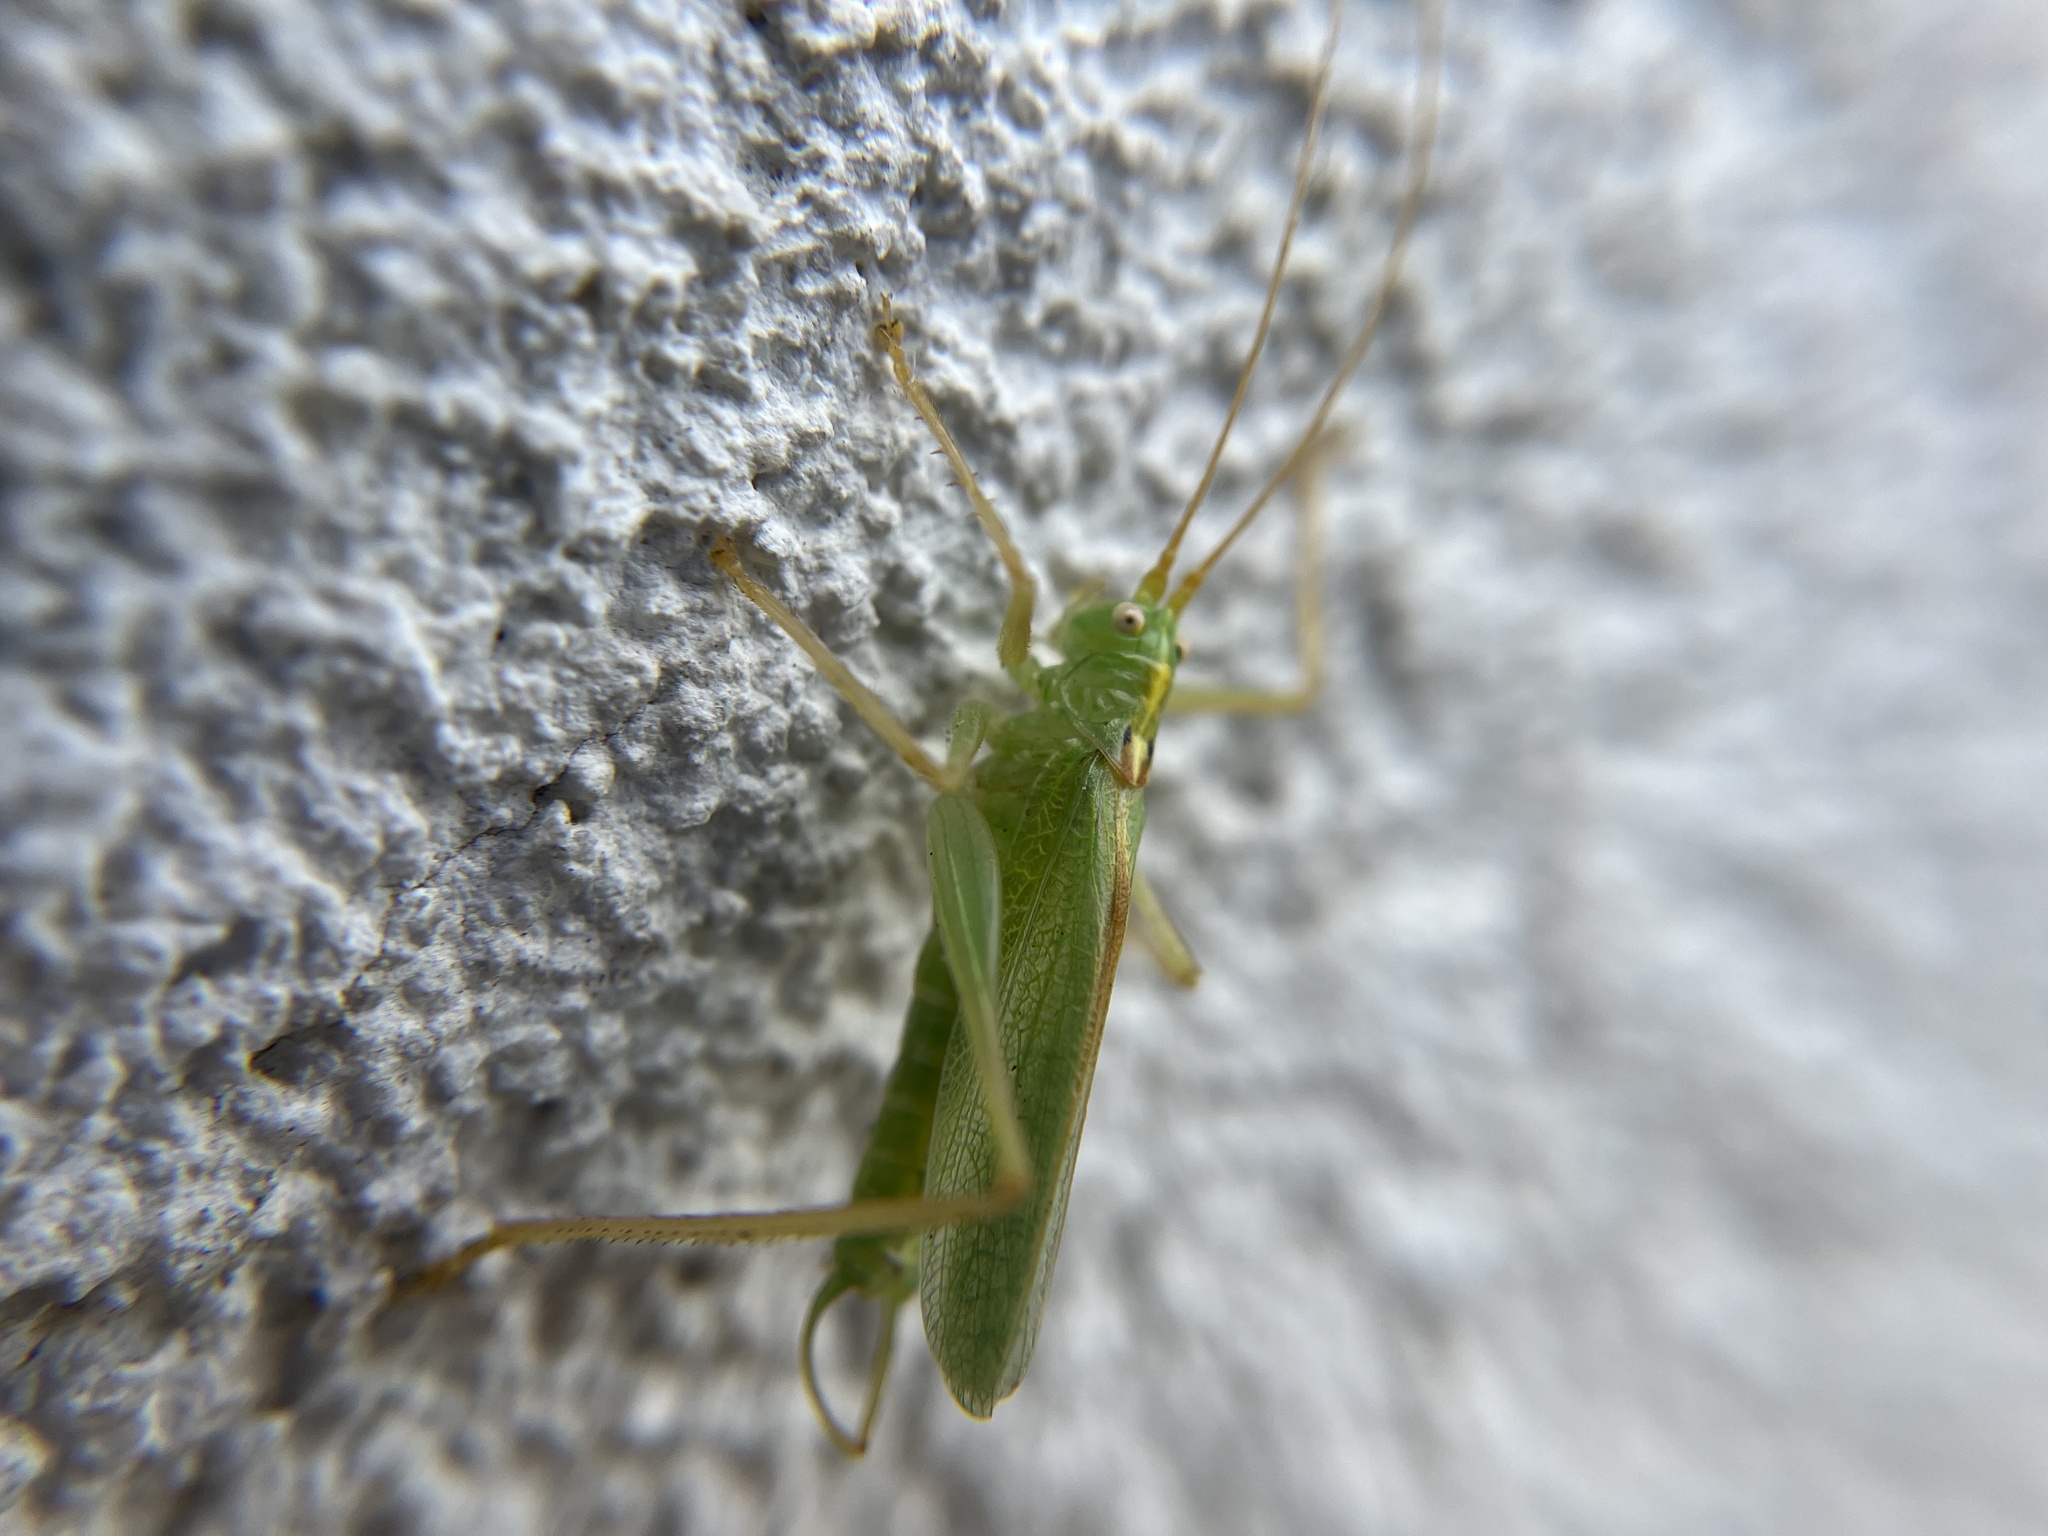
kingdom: Animalia
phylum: Arthropoda
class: Insecta
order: Orthoptera
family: Tettigoniidae
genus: Meconema
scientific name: Meconema thalassinum
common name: Oak bush-cricket
